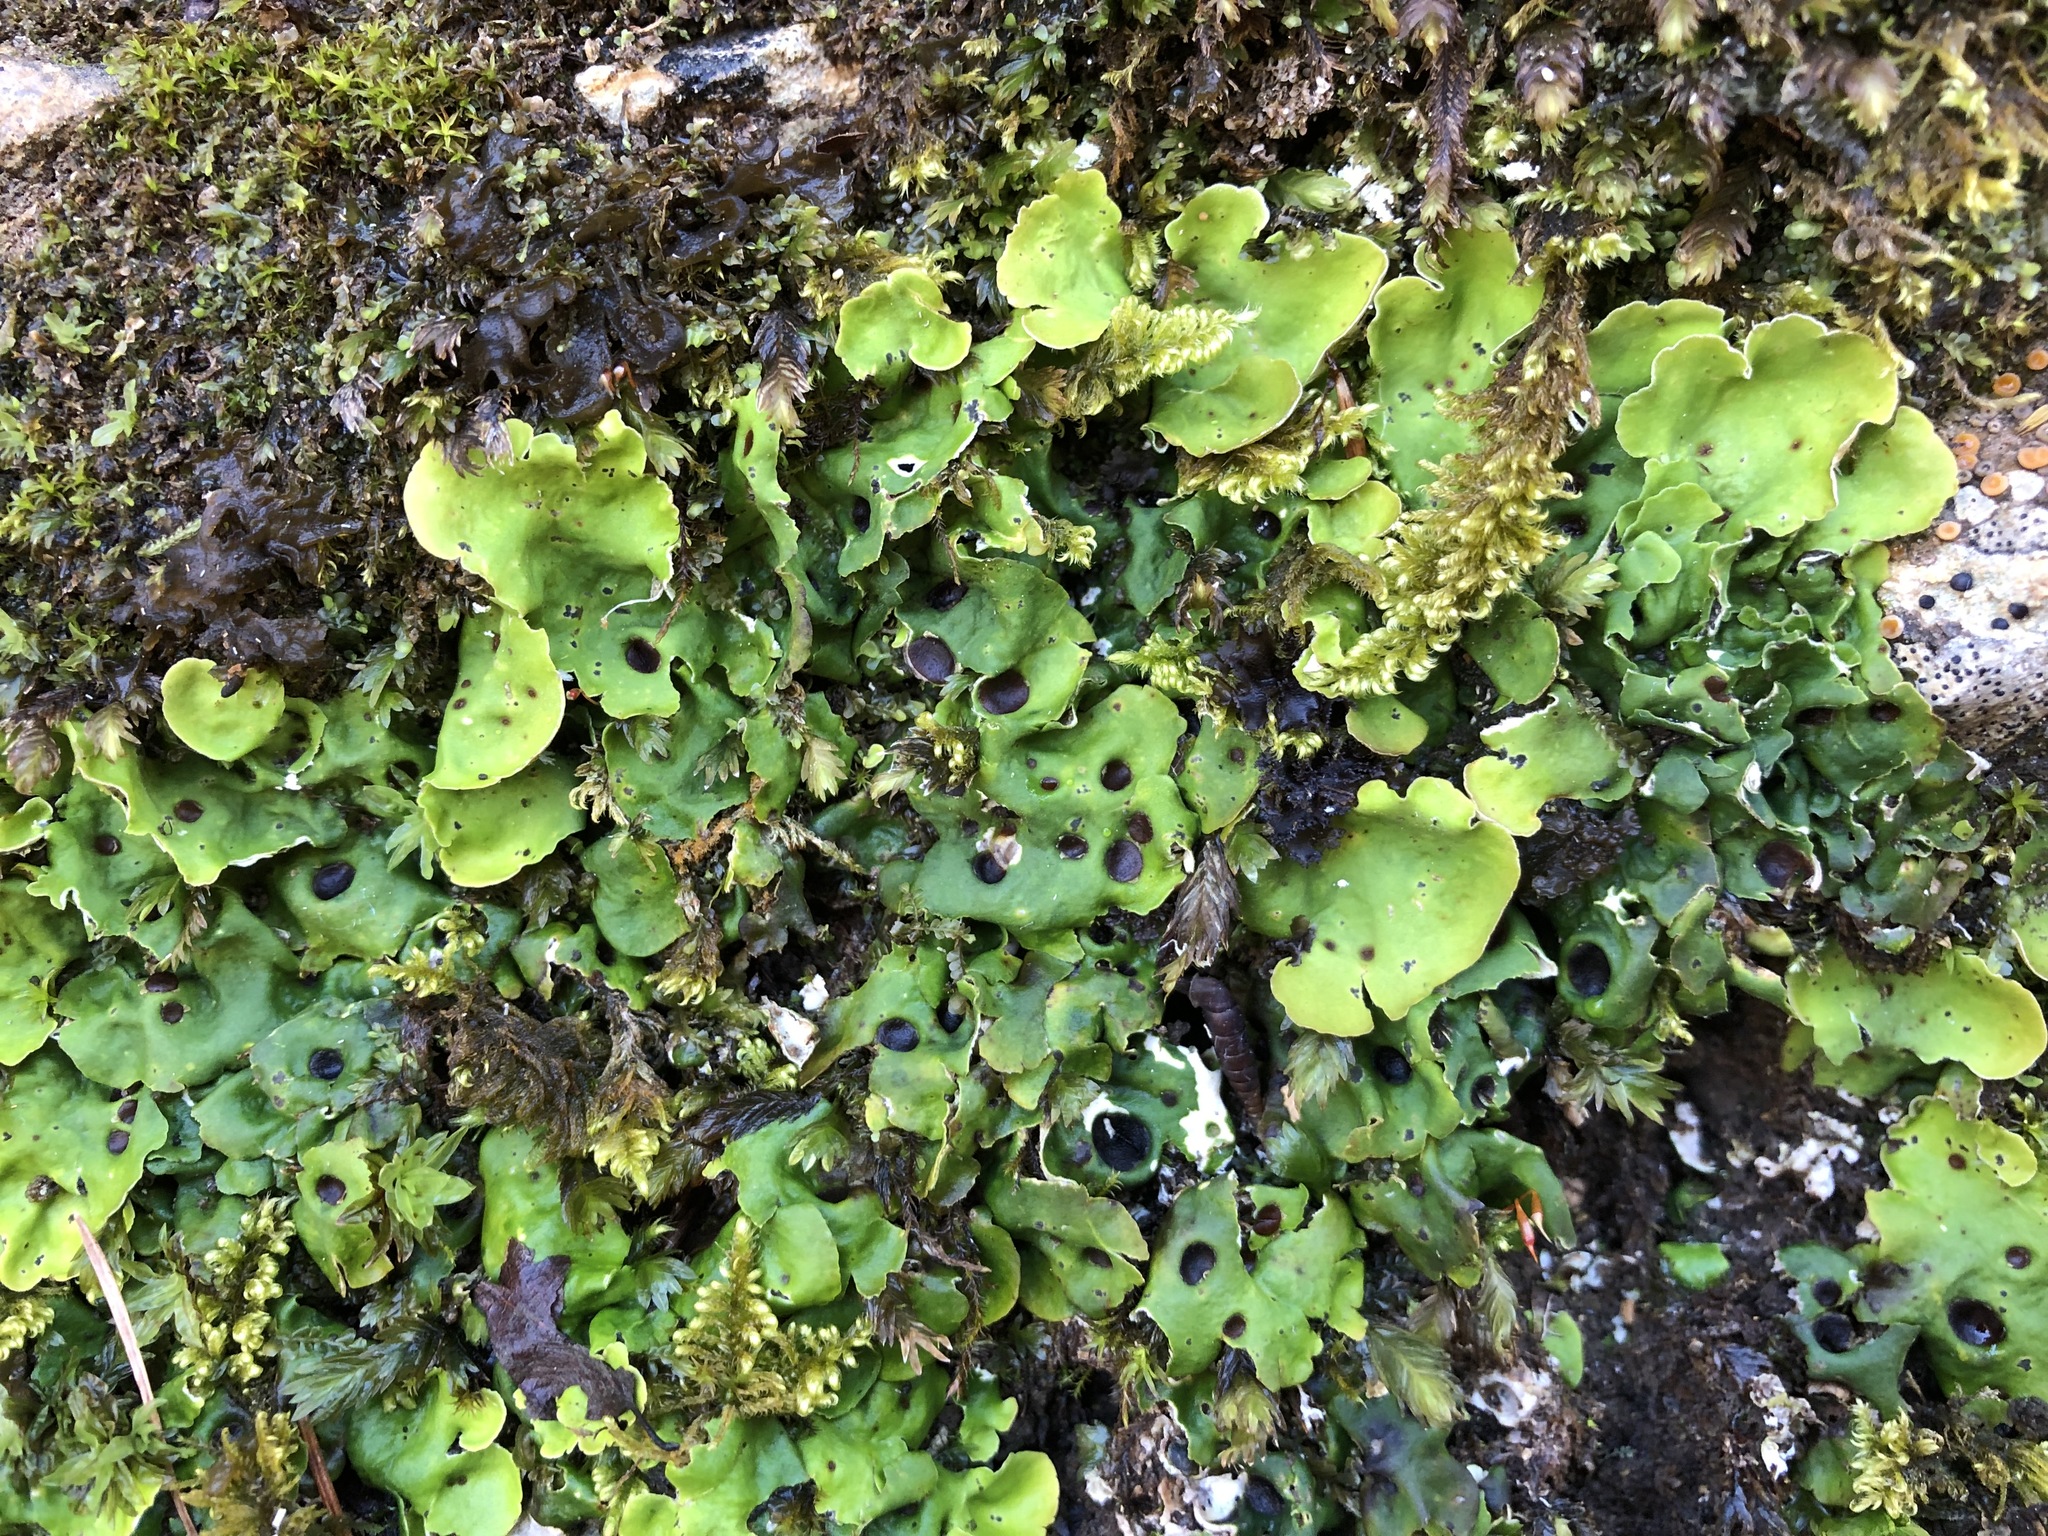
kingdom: Fungi
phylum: Ascomycota
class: Lecanoromycetes
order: Peltigerales
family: Peltigeraceae
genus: Solorina
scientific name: Solorina saccata
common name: Common chocolate chip lichen
